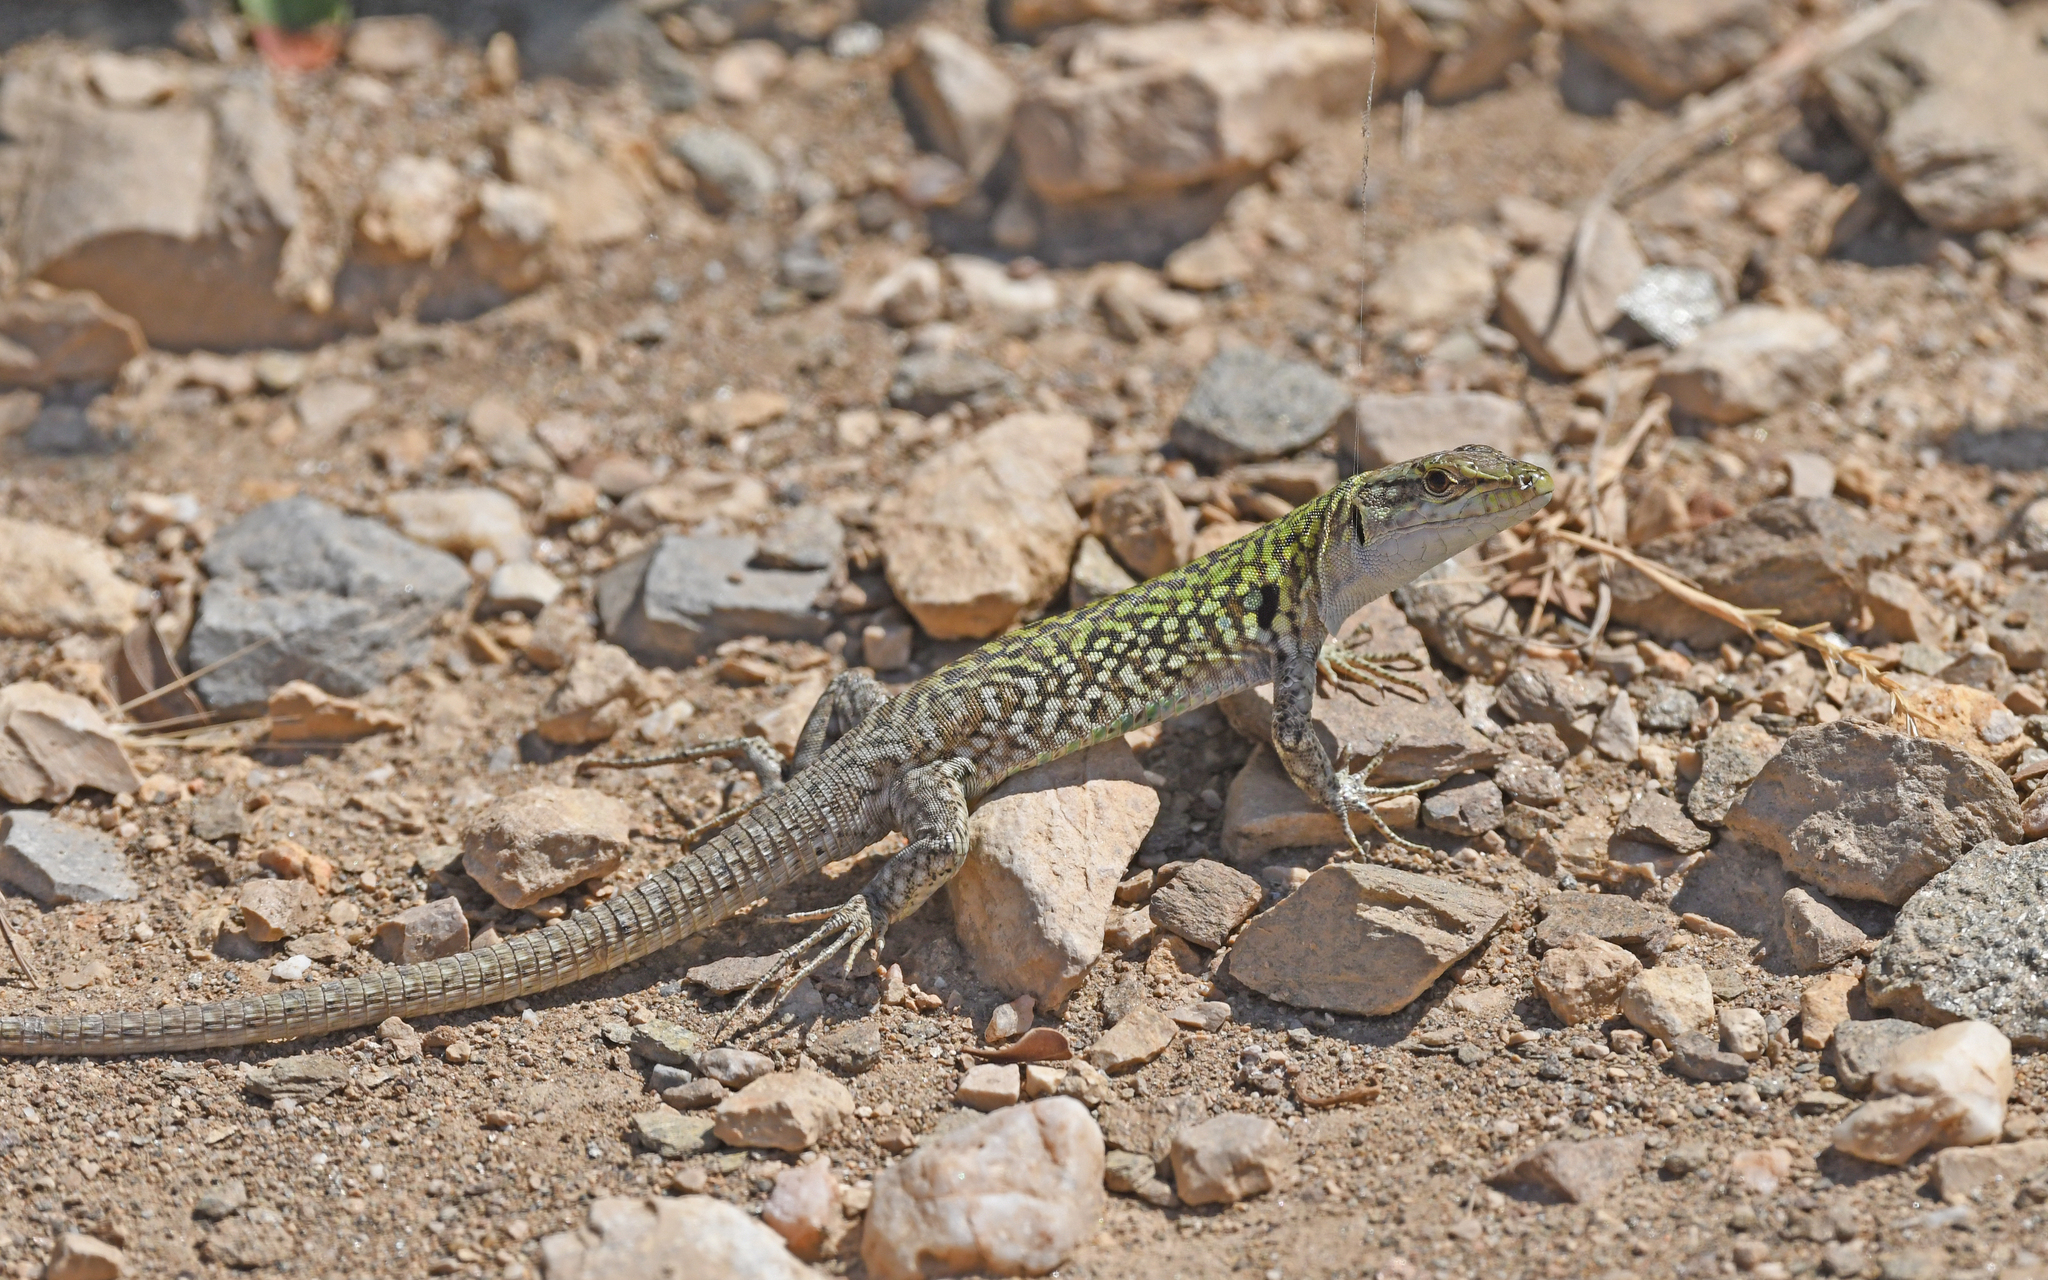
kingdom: Animalia
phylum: Chordata
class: Squamata
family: Lacertidae
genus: Podarcis
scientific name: Podarcis siculus
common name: Italian wall lizard
